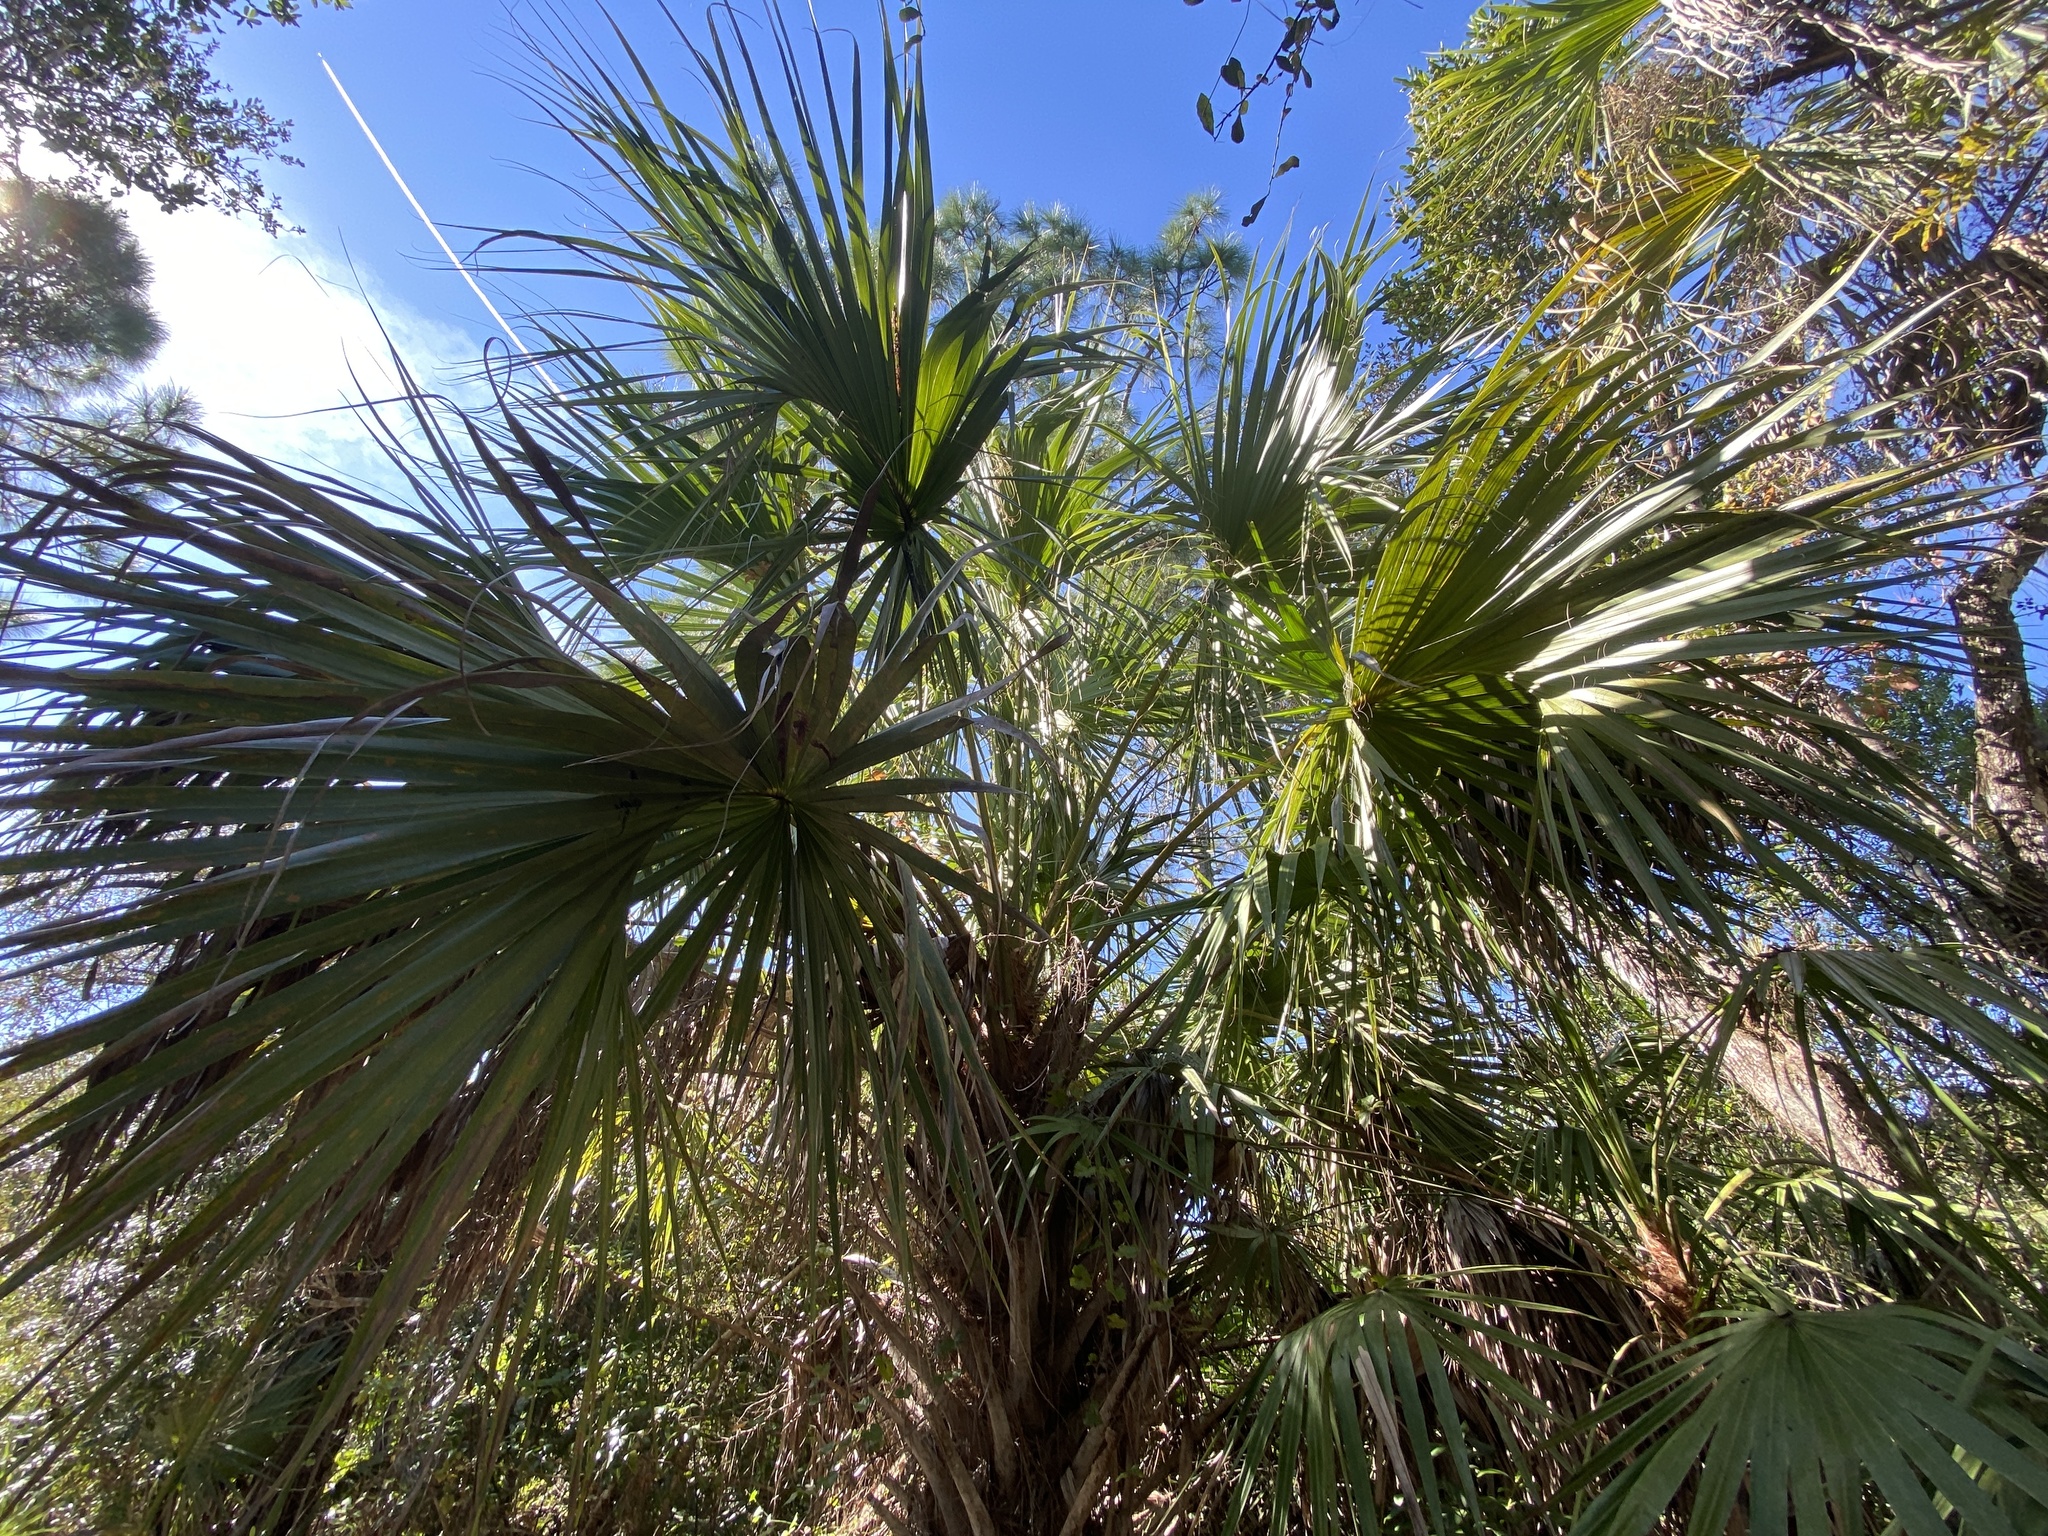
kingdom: Plantae
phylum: Tracheophyta
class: Liliopsida
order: Arecales
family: Arecaceae
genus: Sabal
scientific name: Sabal palmetto
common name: Blue palmetto
